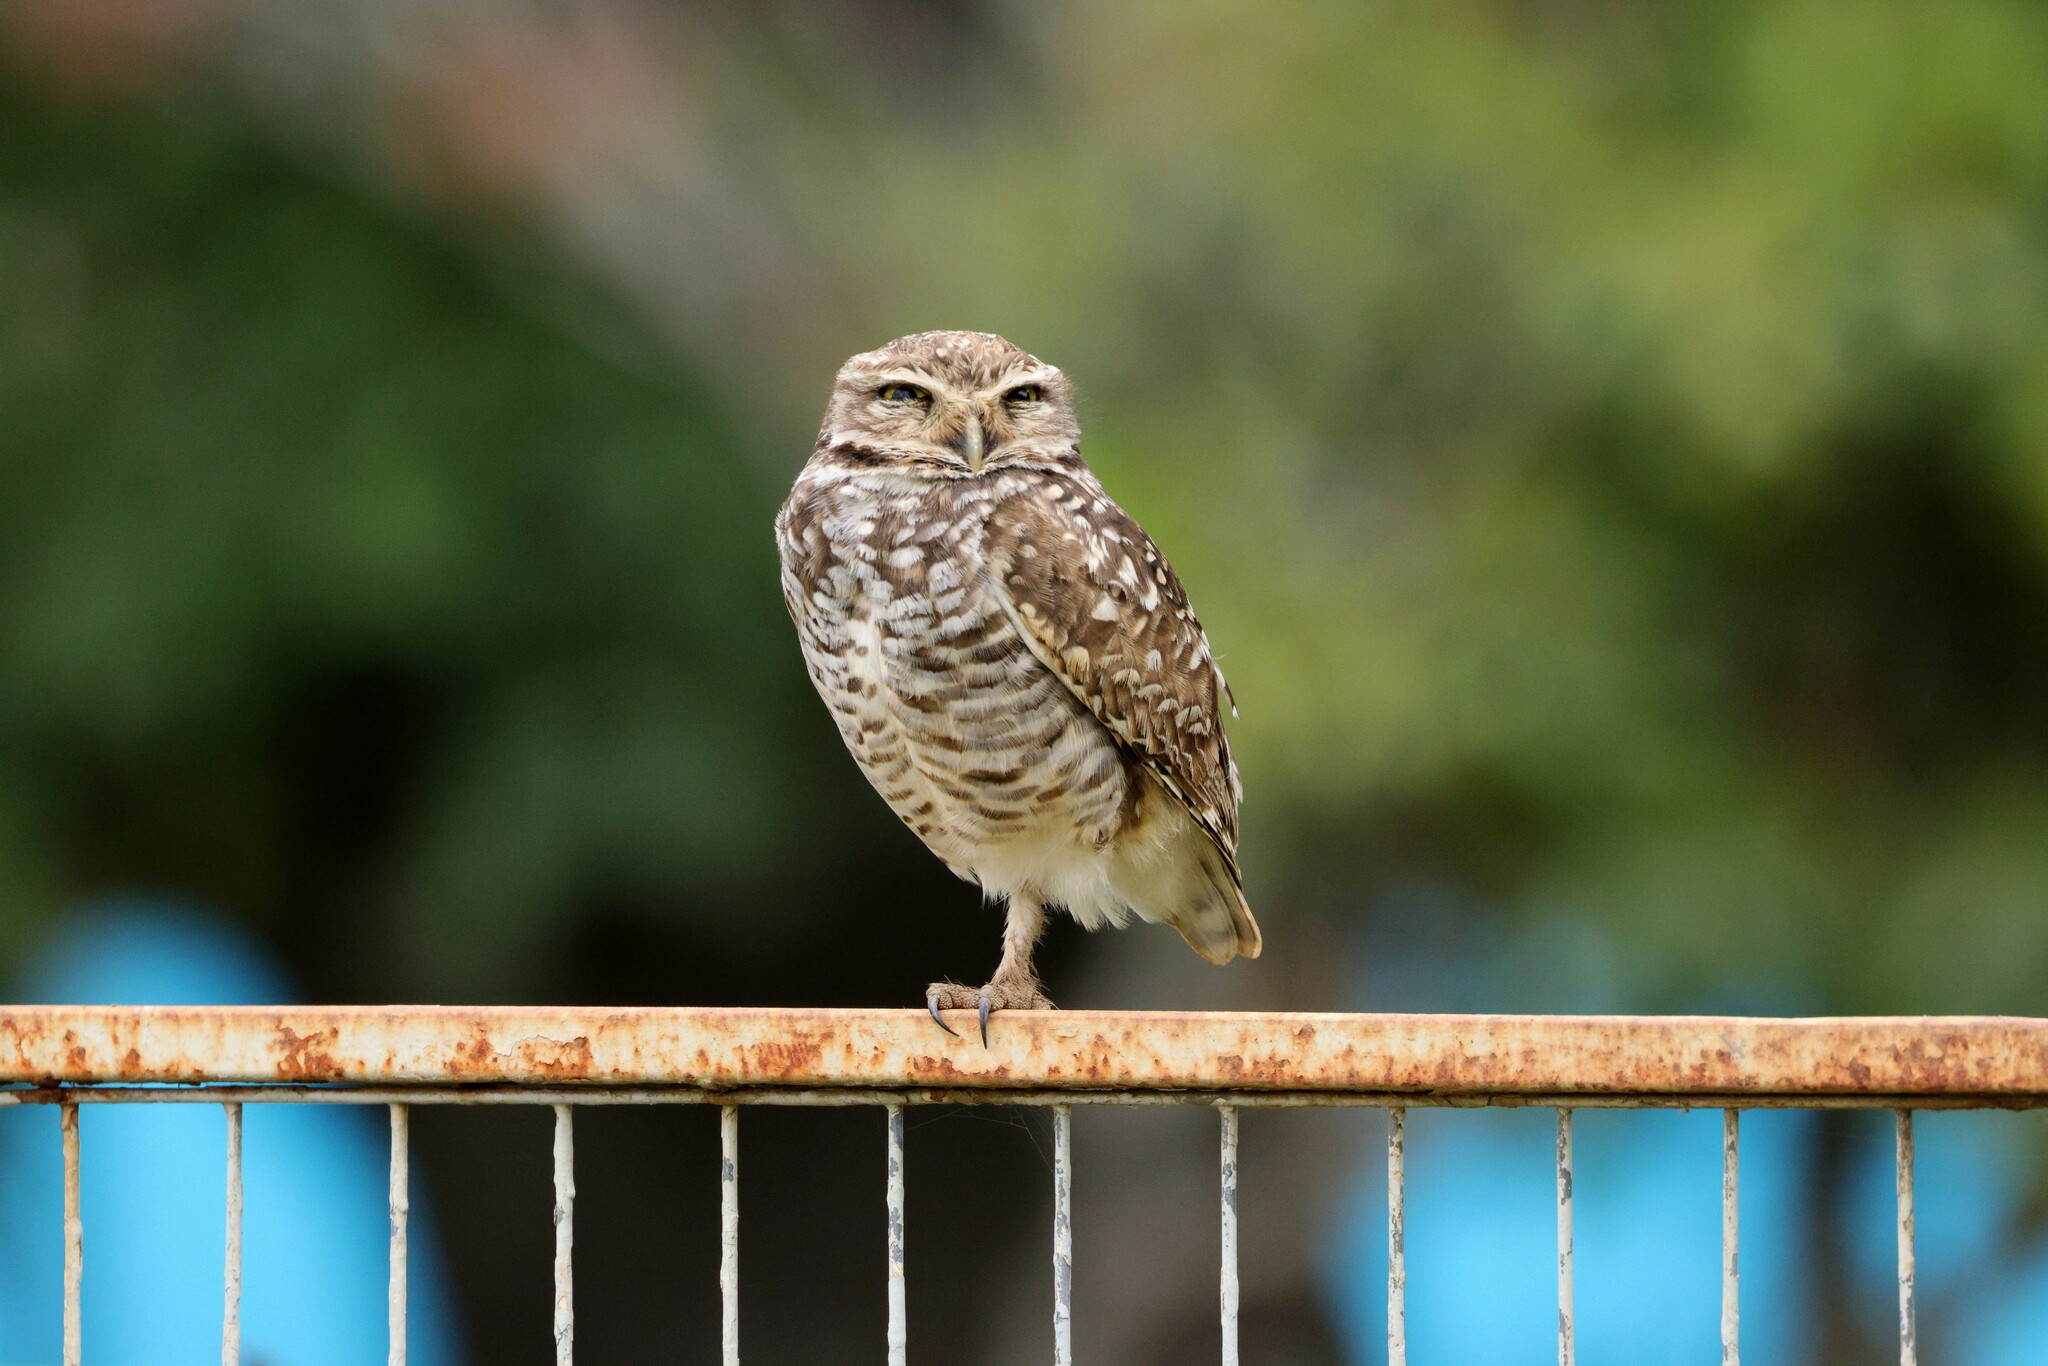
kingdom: Animalia
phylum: Chordata
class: Aves
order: Strigiformes
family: Strigidae
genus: Athene
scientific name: Athene cunicularia
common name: Burrowing owl
